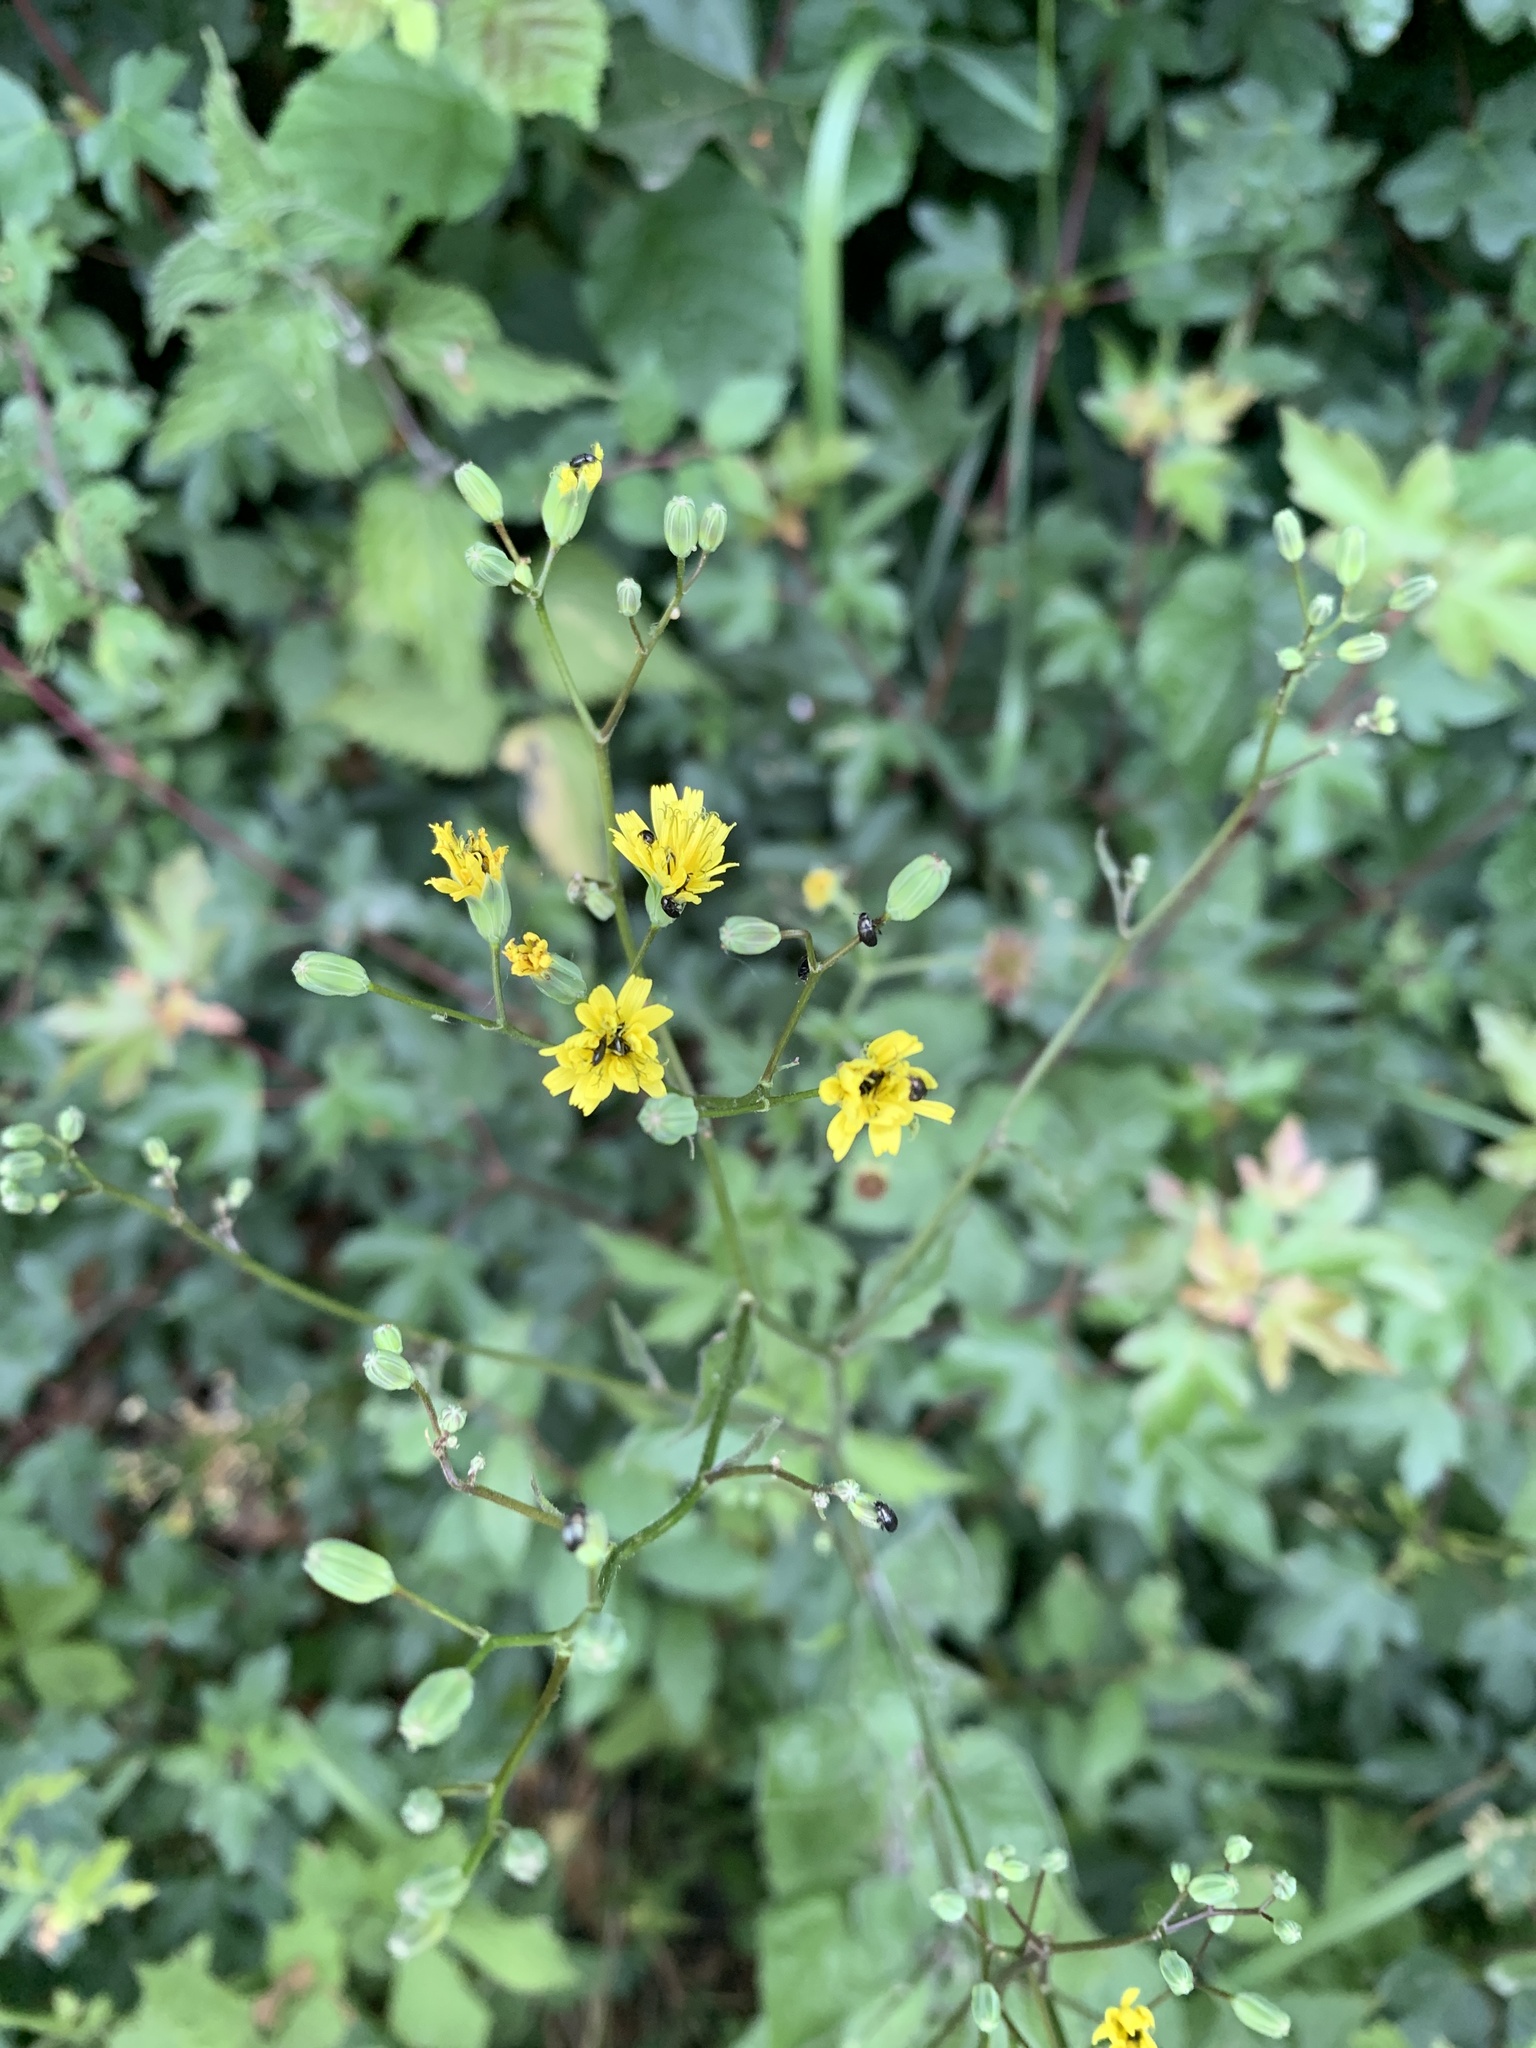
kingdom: Plantae
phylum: Tracheophyta
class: Magnoliopsida
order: Asterales
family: Asteraceae
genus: Lapsana
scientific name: Lapsana communis
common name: Nipplewort
